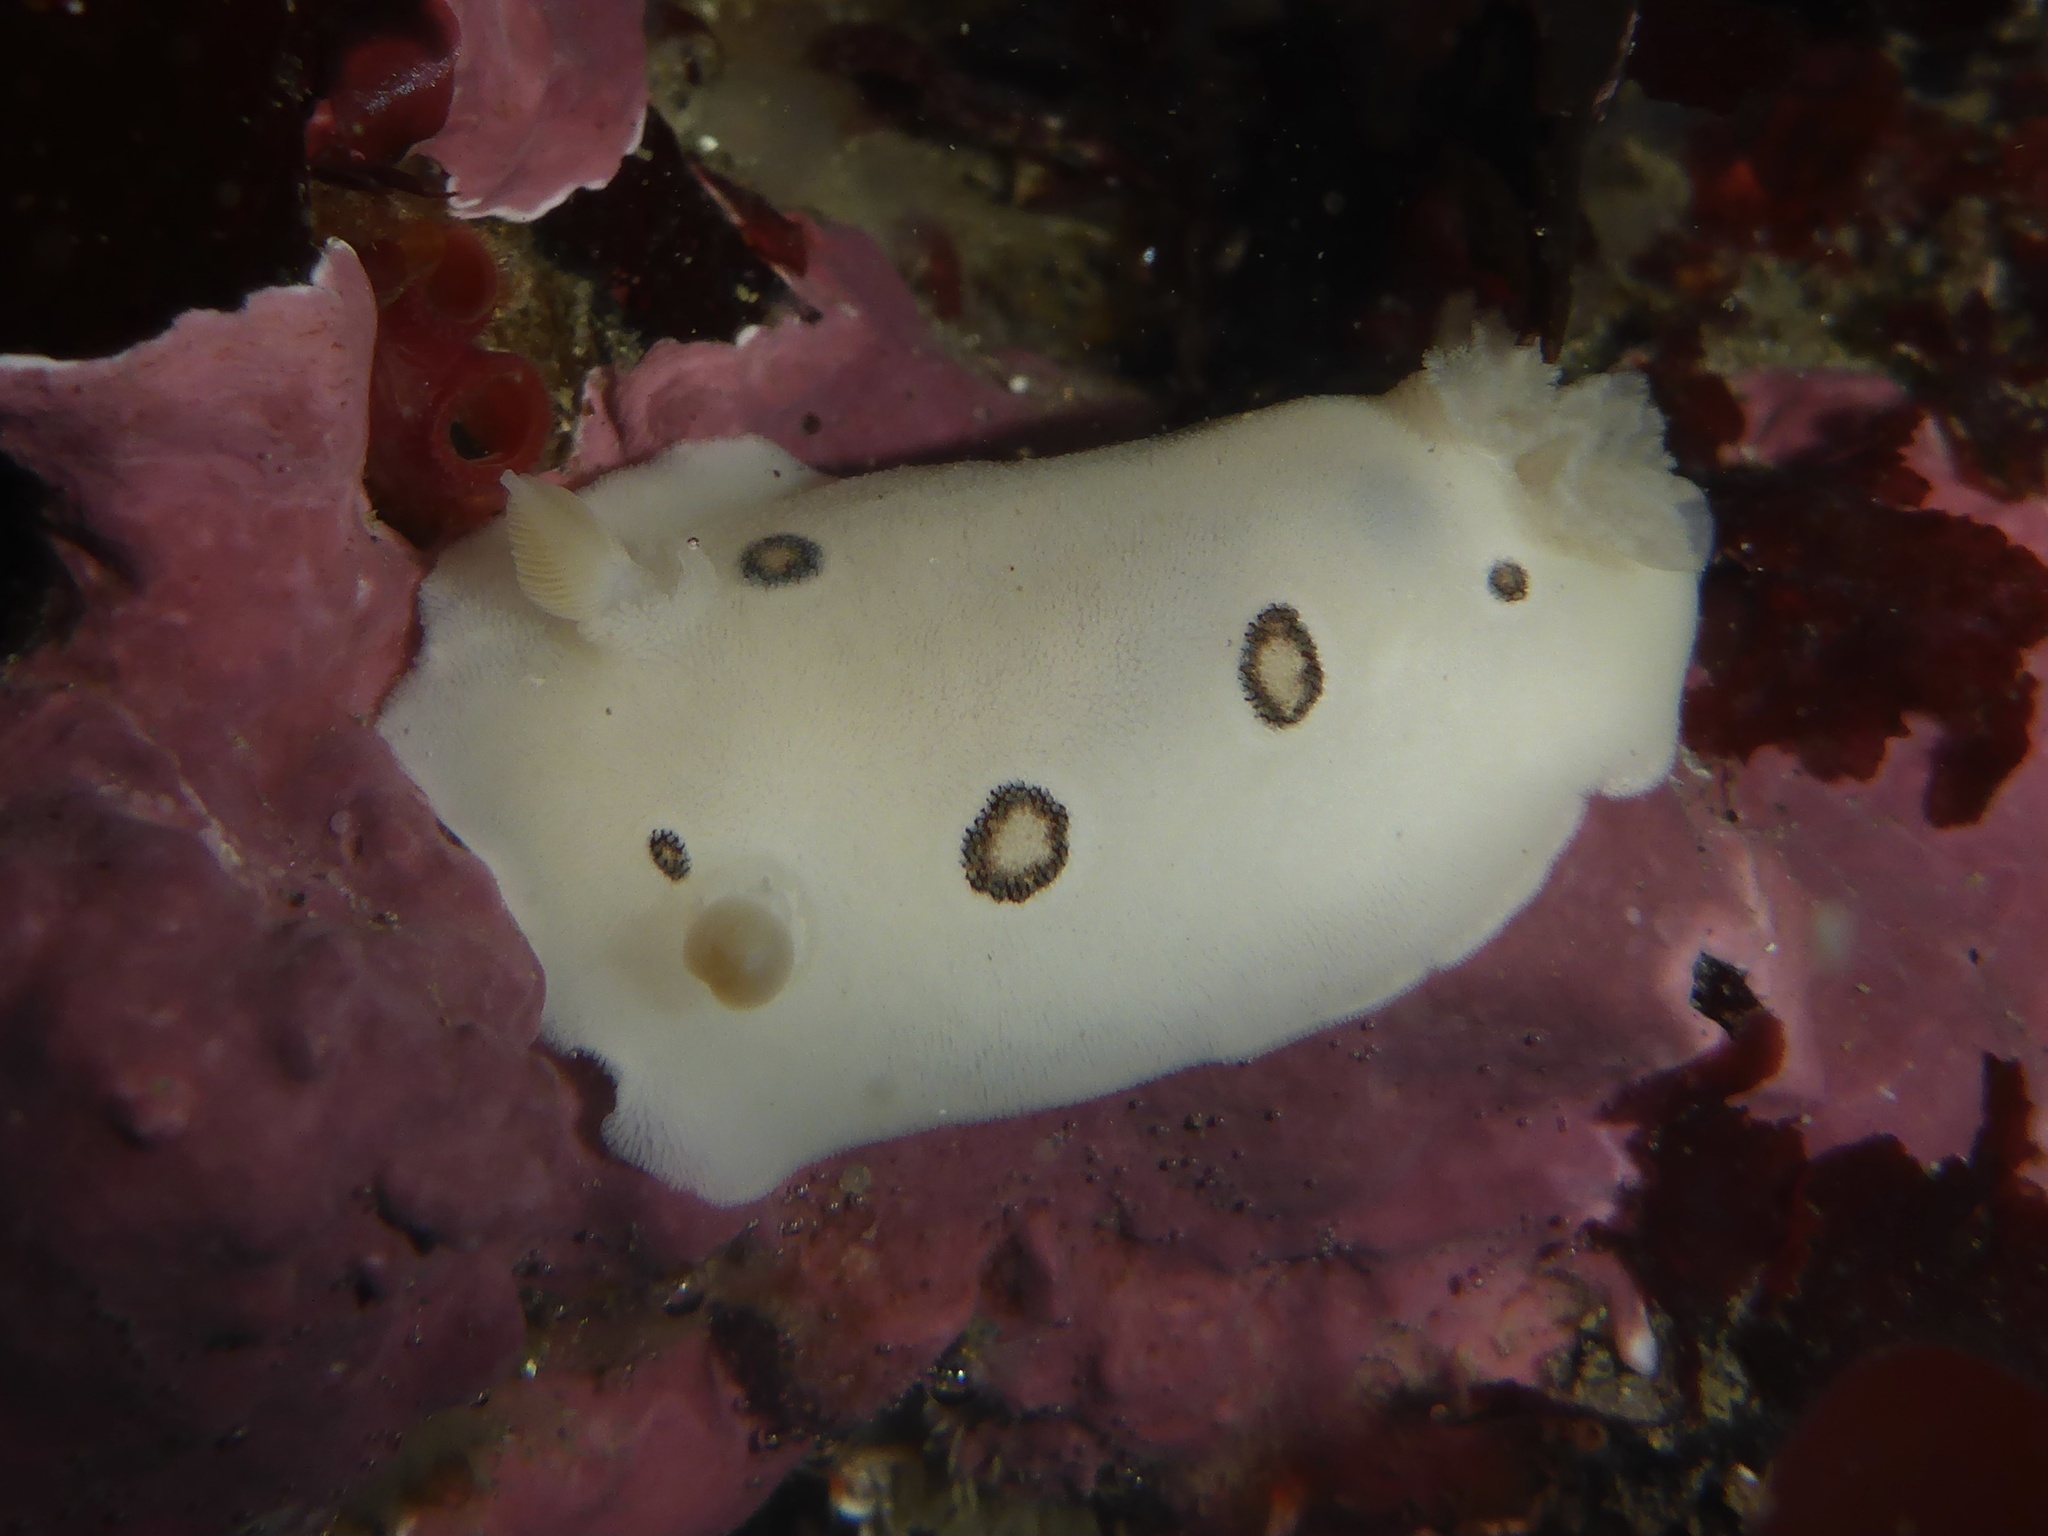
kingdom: Animalia
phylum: Mollusca
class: Gastropoda
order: Nudibranchia
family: Discodorididae
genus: Diaulula
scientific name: Diaulula sandiegensis
